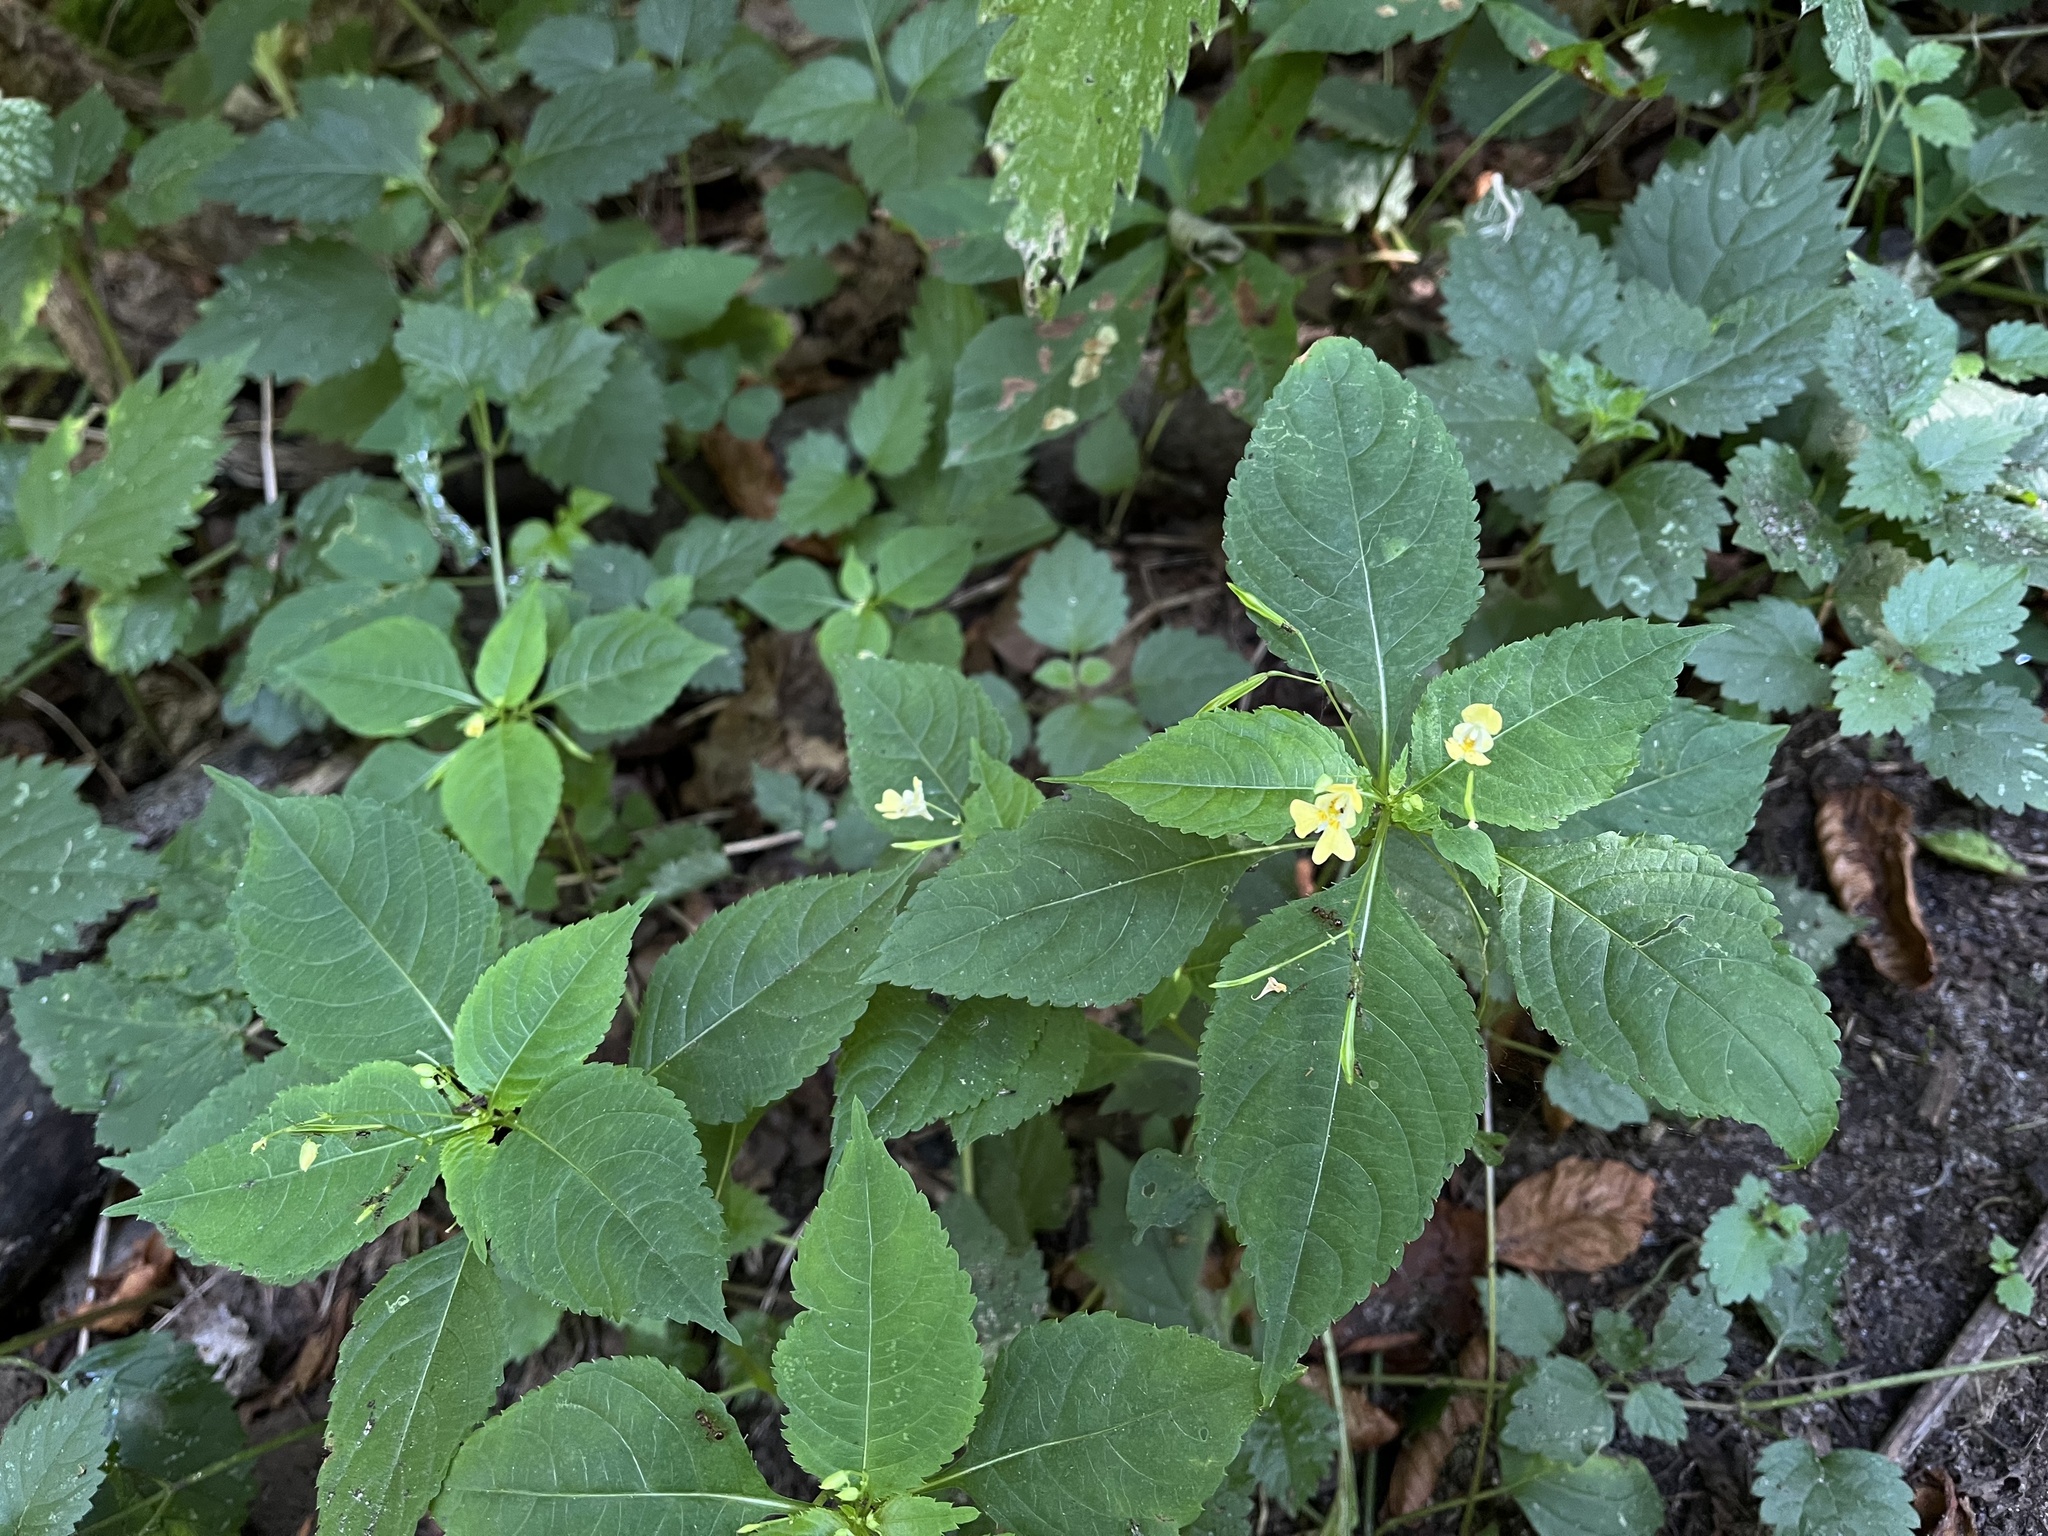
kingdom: Plantae
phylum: Tracheophyta
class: Magnoliopsida
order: Ericales
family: Balsaminaceae
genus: Impatiens
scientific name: Impatiens parviflora
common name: Small balsam
